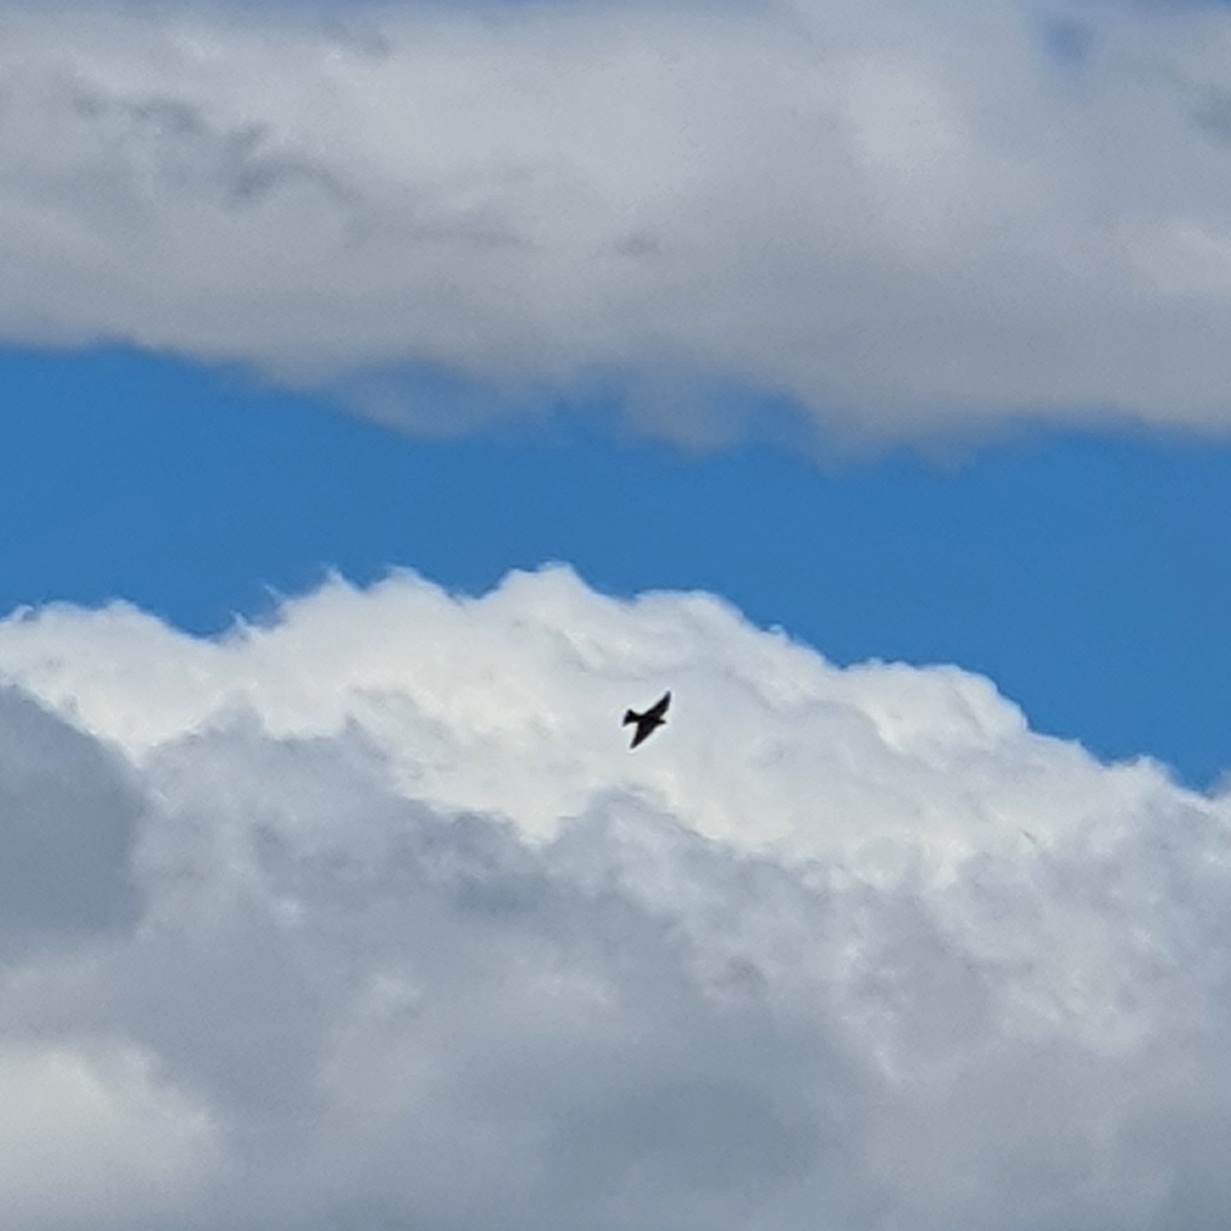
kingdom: Animalia
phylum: Chordata
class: Aves
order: Passeriformes
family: Artamidae
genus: Artamus
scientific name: Artamus cyanopterus
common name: Dusky woodswallow
